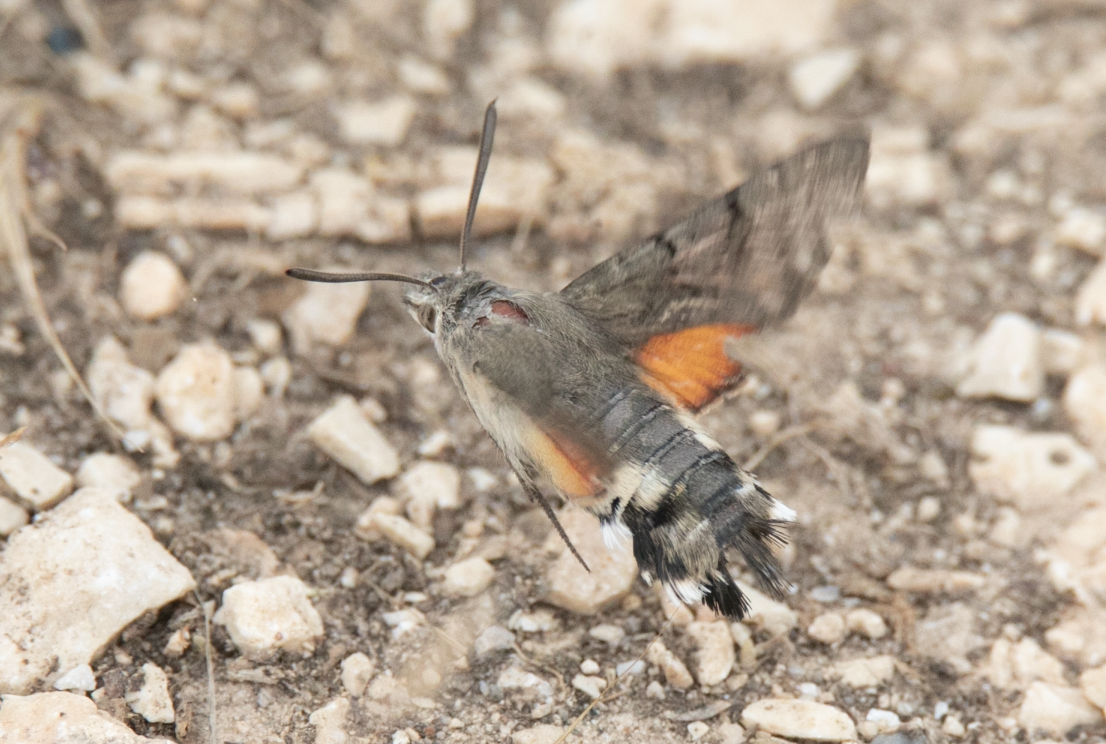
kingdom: Animalia
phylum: Arthropoda
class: Insecta
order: Lepidoptera
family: Sphingidae
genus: Macroglossum
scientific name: Macroglossum stellatarum
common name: Humming-bird hawk-moth
